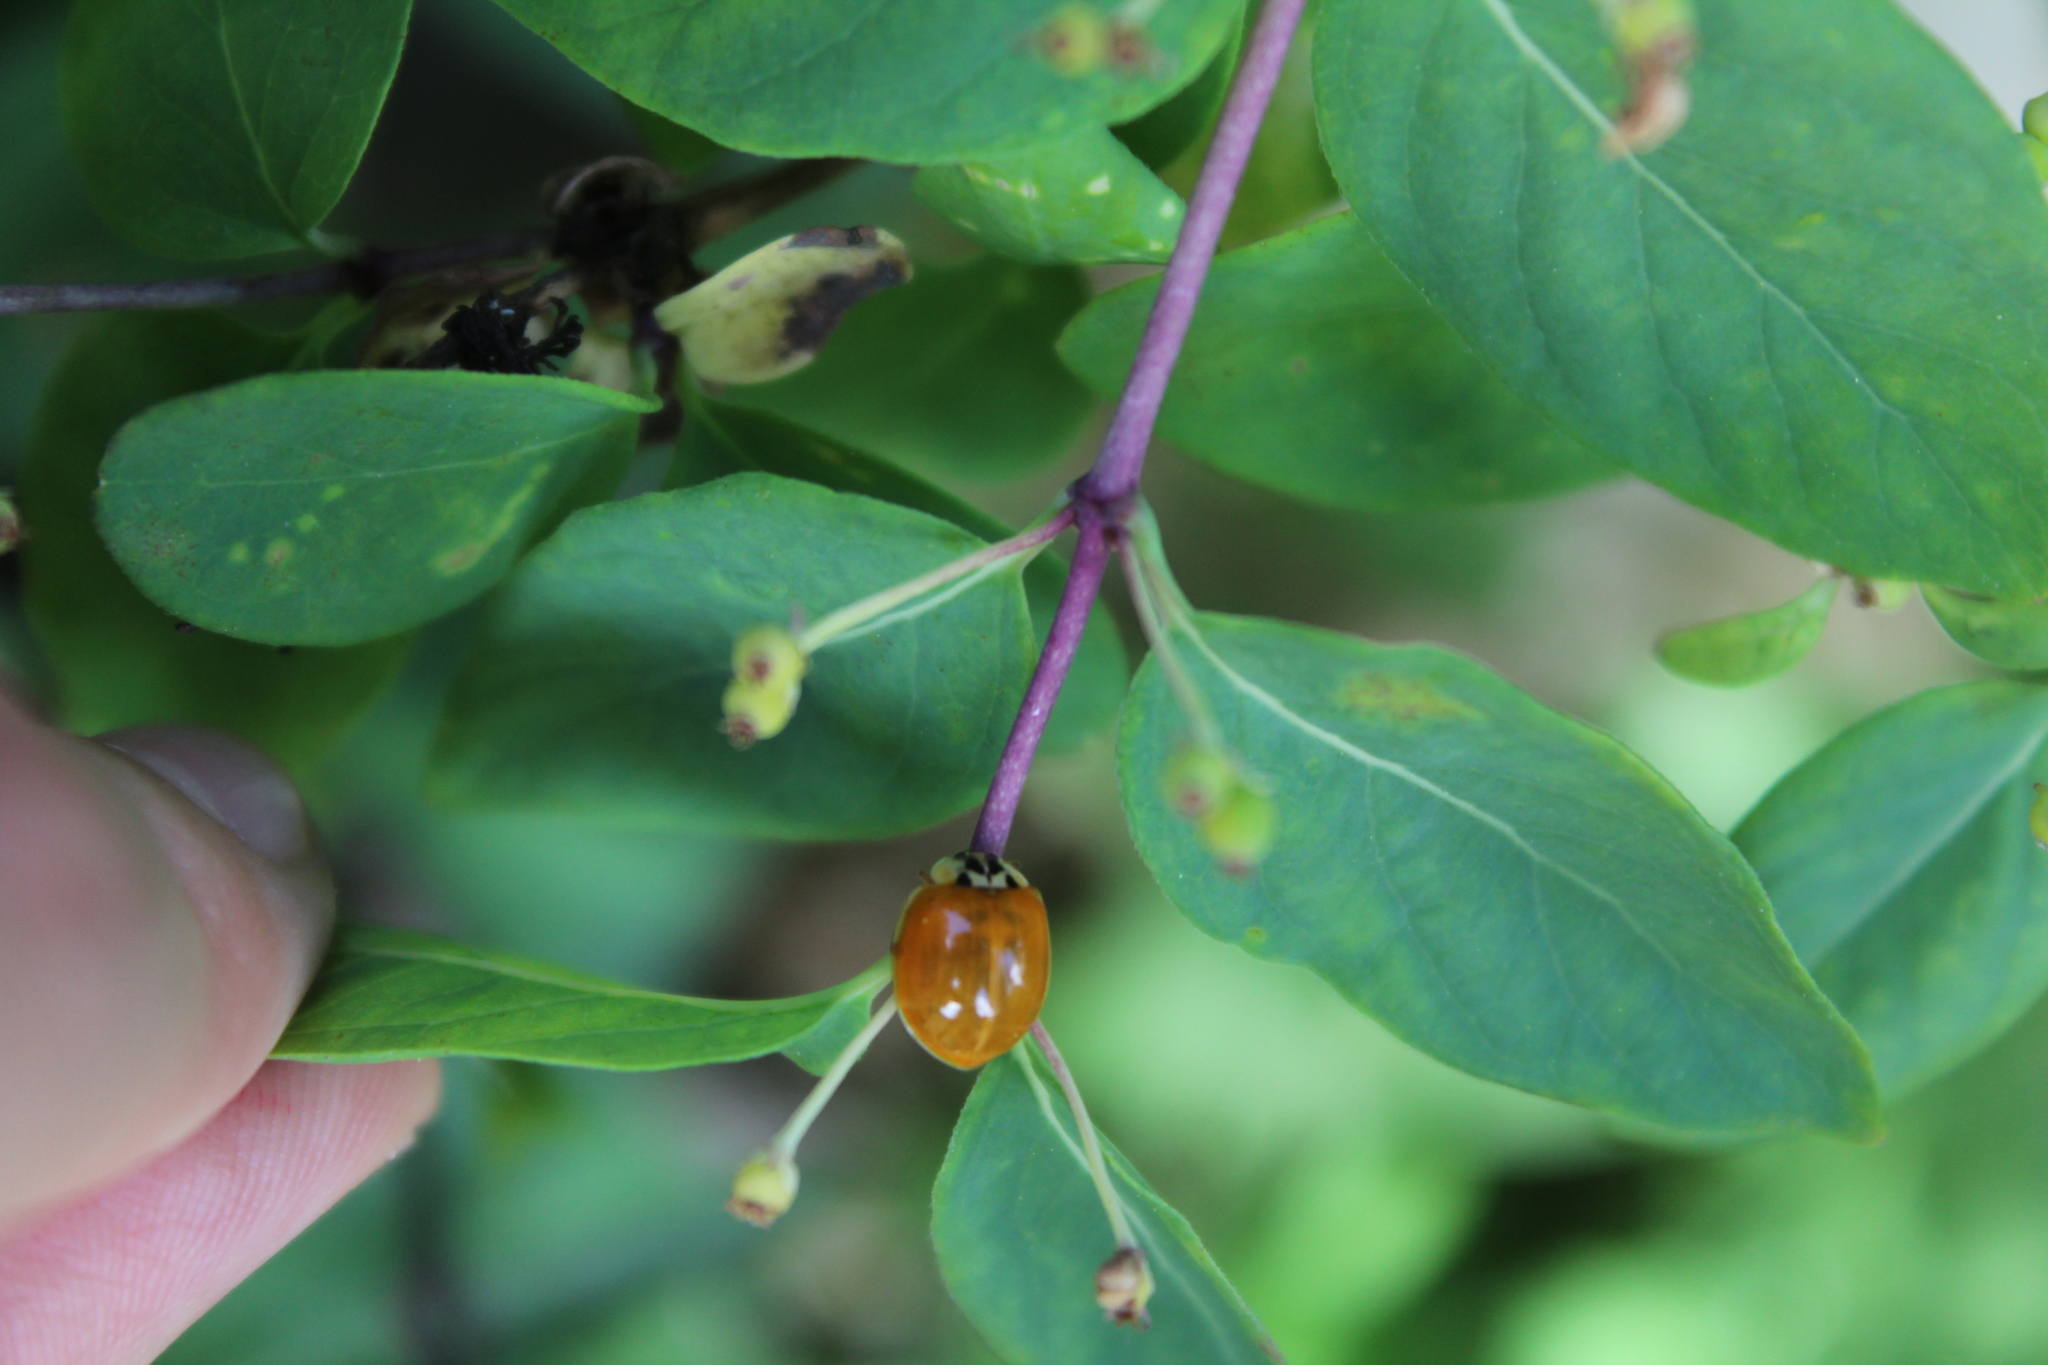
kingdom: Animalia
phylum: Arthropoda
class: Insecta
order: Coleoptera
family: Coccinellidae
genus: Harmonia
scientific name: Harmonia axyridis
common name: Harlequin ladybird
